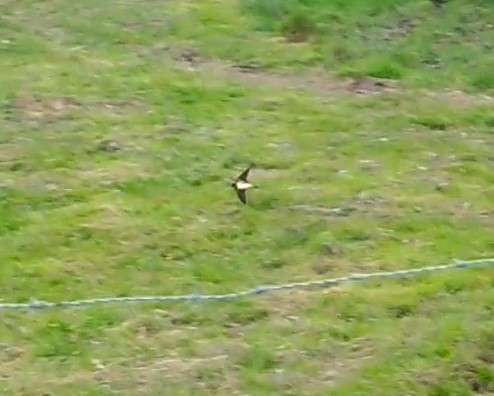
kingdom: Animalia
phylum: Chordata
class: Aves
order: Passeriformes
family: Hirundinidae
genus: Hirundo
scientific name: Hirundo rustica
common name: Barn swallow
